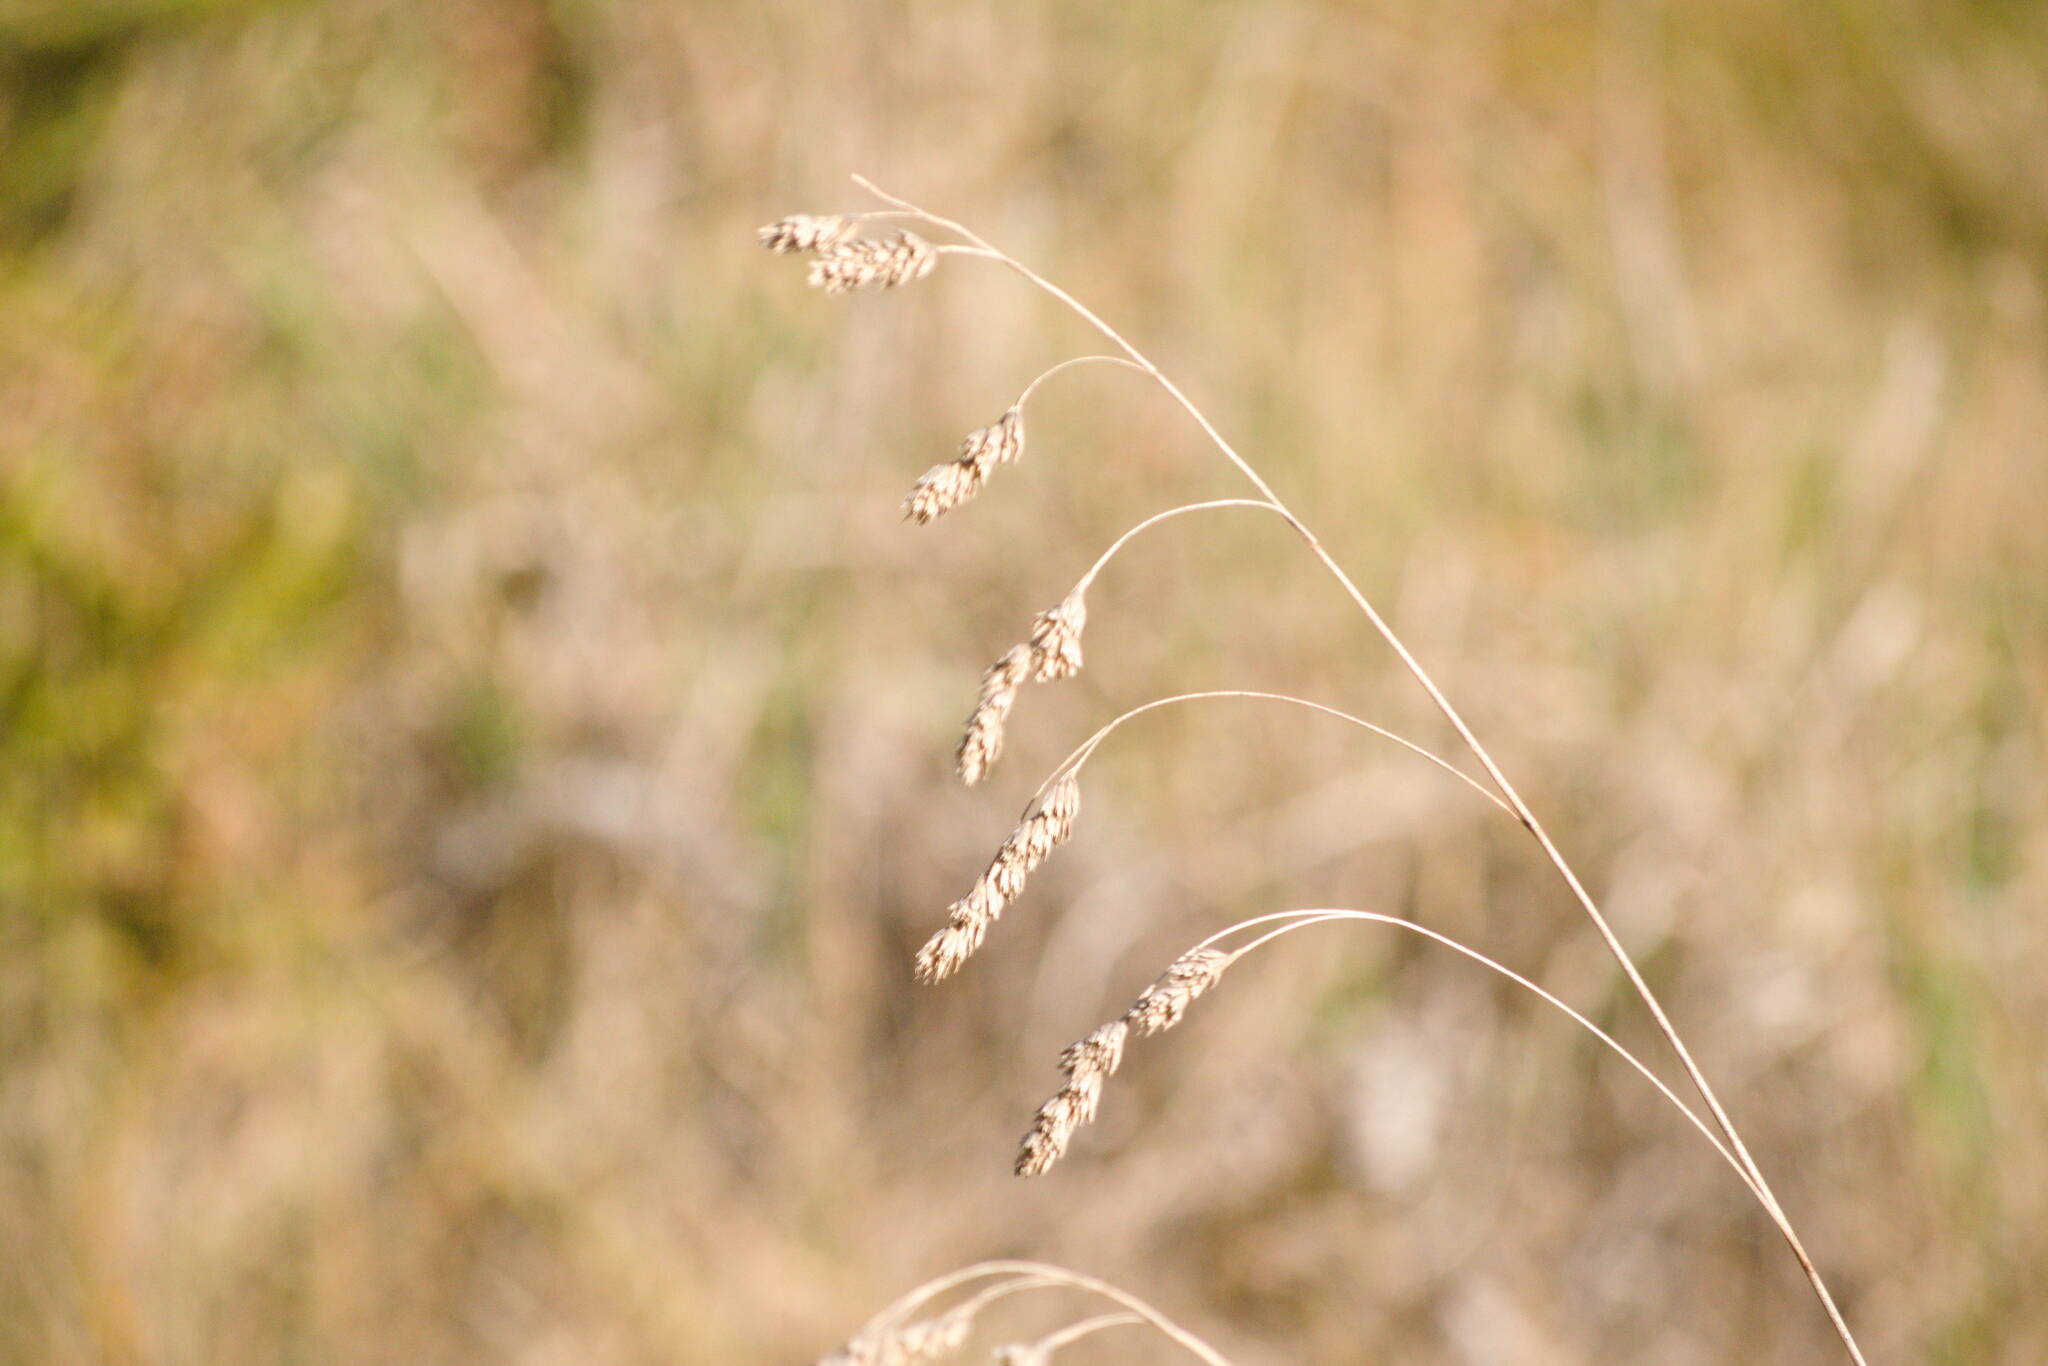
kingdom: Plantae
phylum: Tracheophyta
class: Liliopsida
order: Poales
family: Poaceae
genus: Dactylis
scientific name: Dactylis glomerata
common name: Orchardgrass
